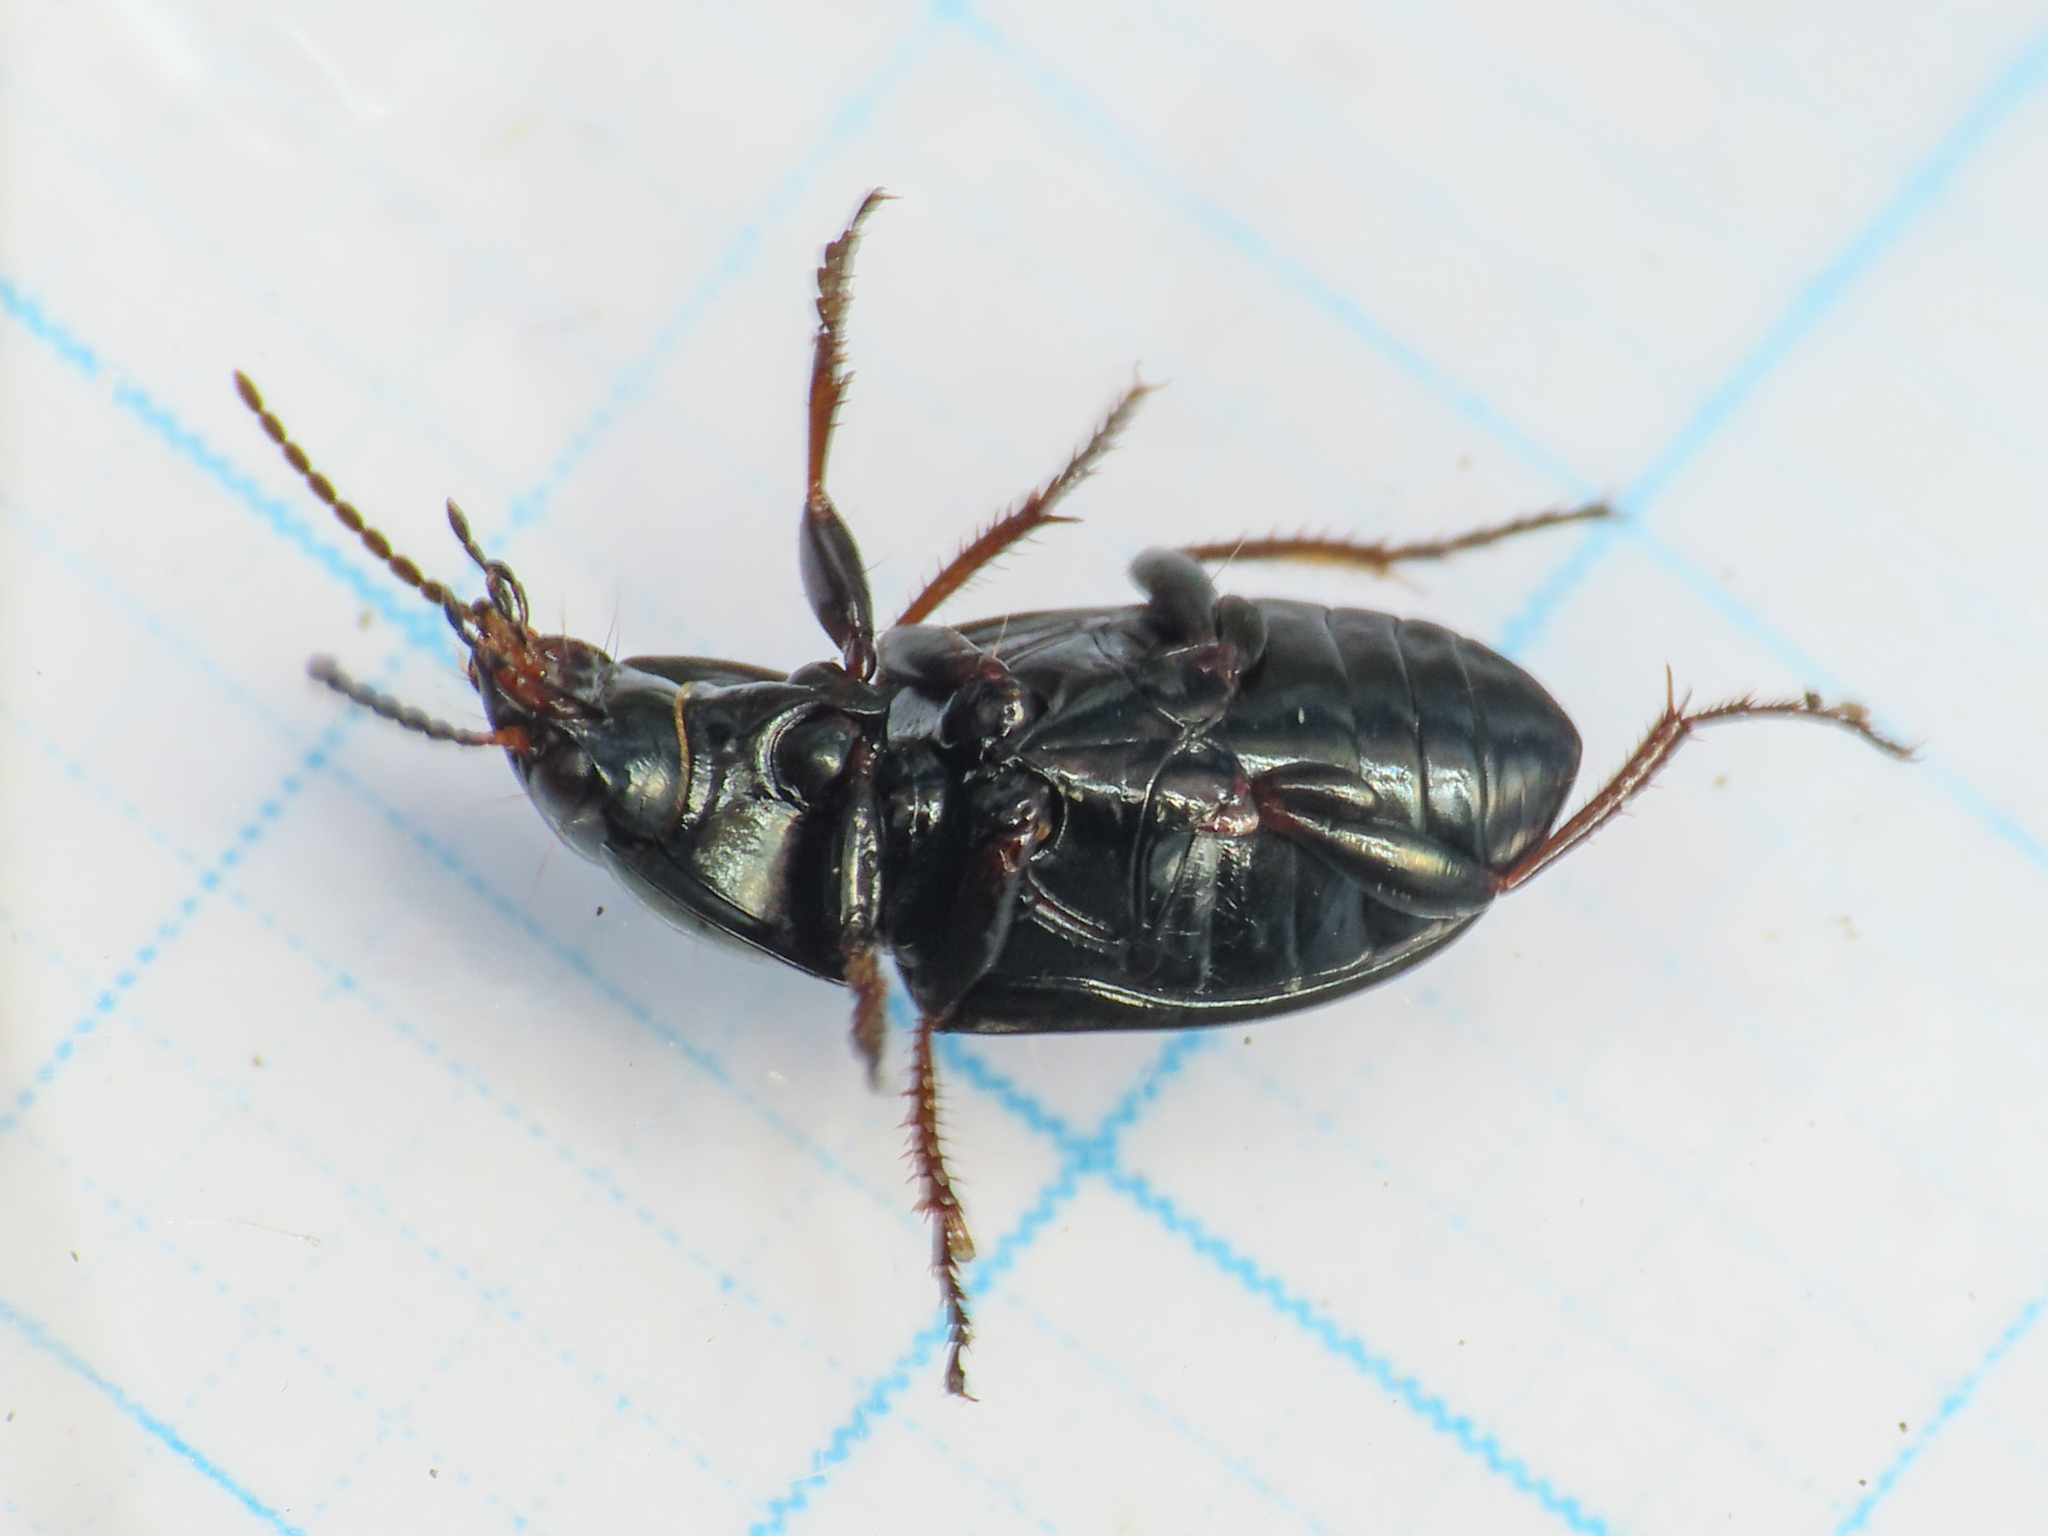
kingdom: Animalia
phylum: Arthropoda
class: Insecta
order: Coleoptera
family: Carabidae
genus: Amara
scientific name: Amara aenea
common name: Common sun beetle
